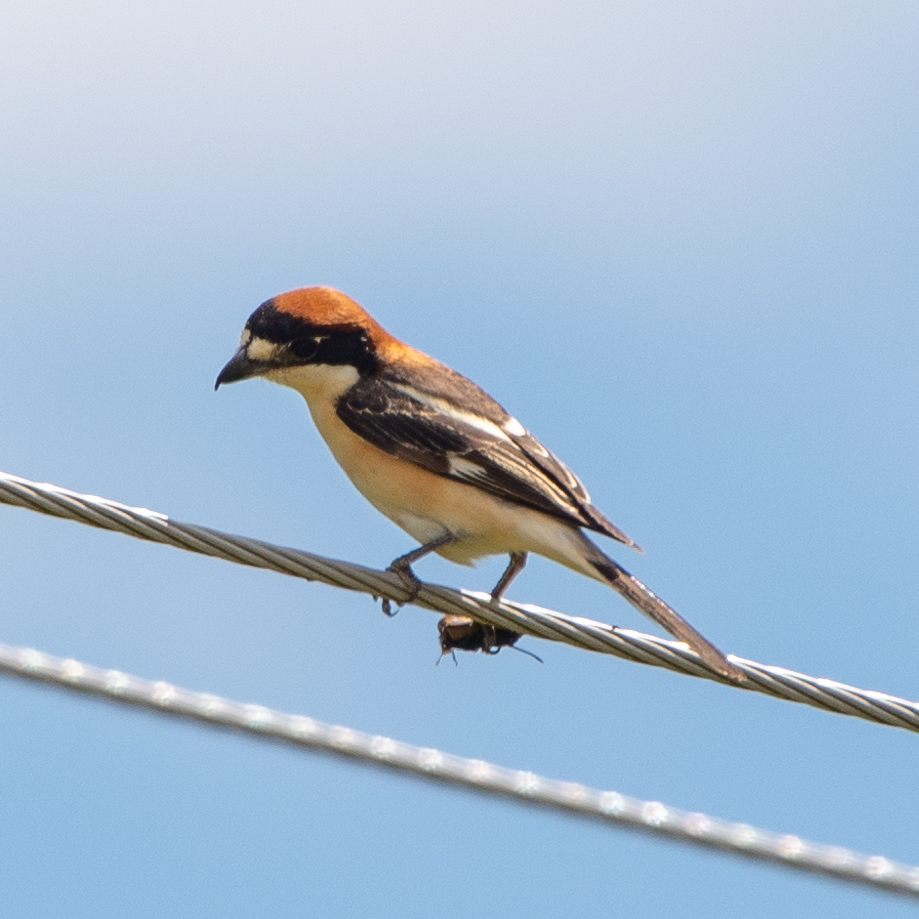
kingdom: Animalia
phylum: Chordata
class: Aves
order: Passeriformes
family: Laniidae
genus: Lanius
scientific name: Lanius senator
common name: Woodchat shrike
